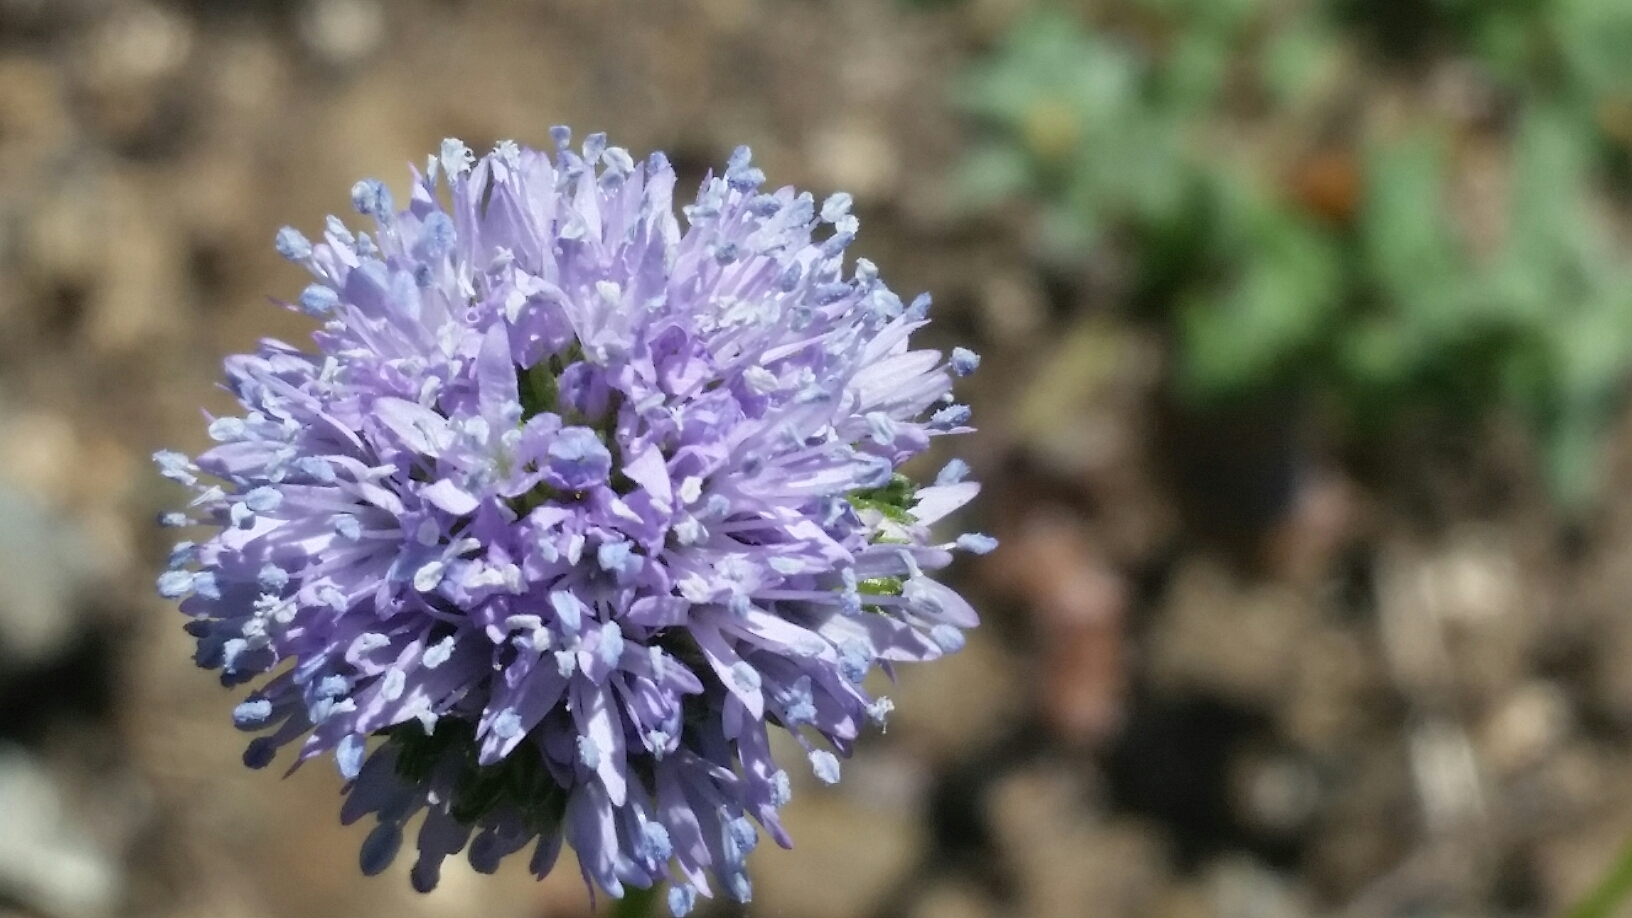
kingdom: Plantae
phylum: Tracheophyta
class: Magnoliopsida
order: Ericales
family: Polemoniaceae
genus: Gilia
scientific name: Gilia capitata
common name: Bluehead gilia
